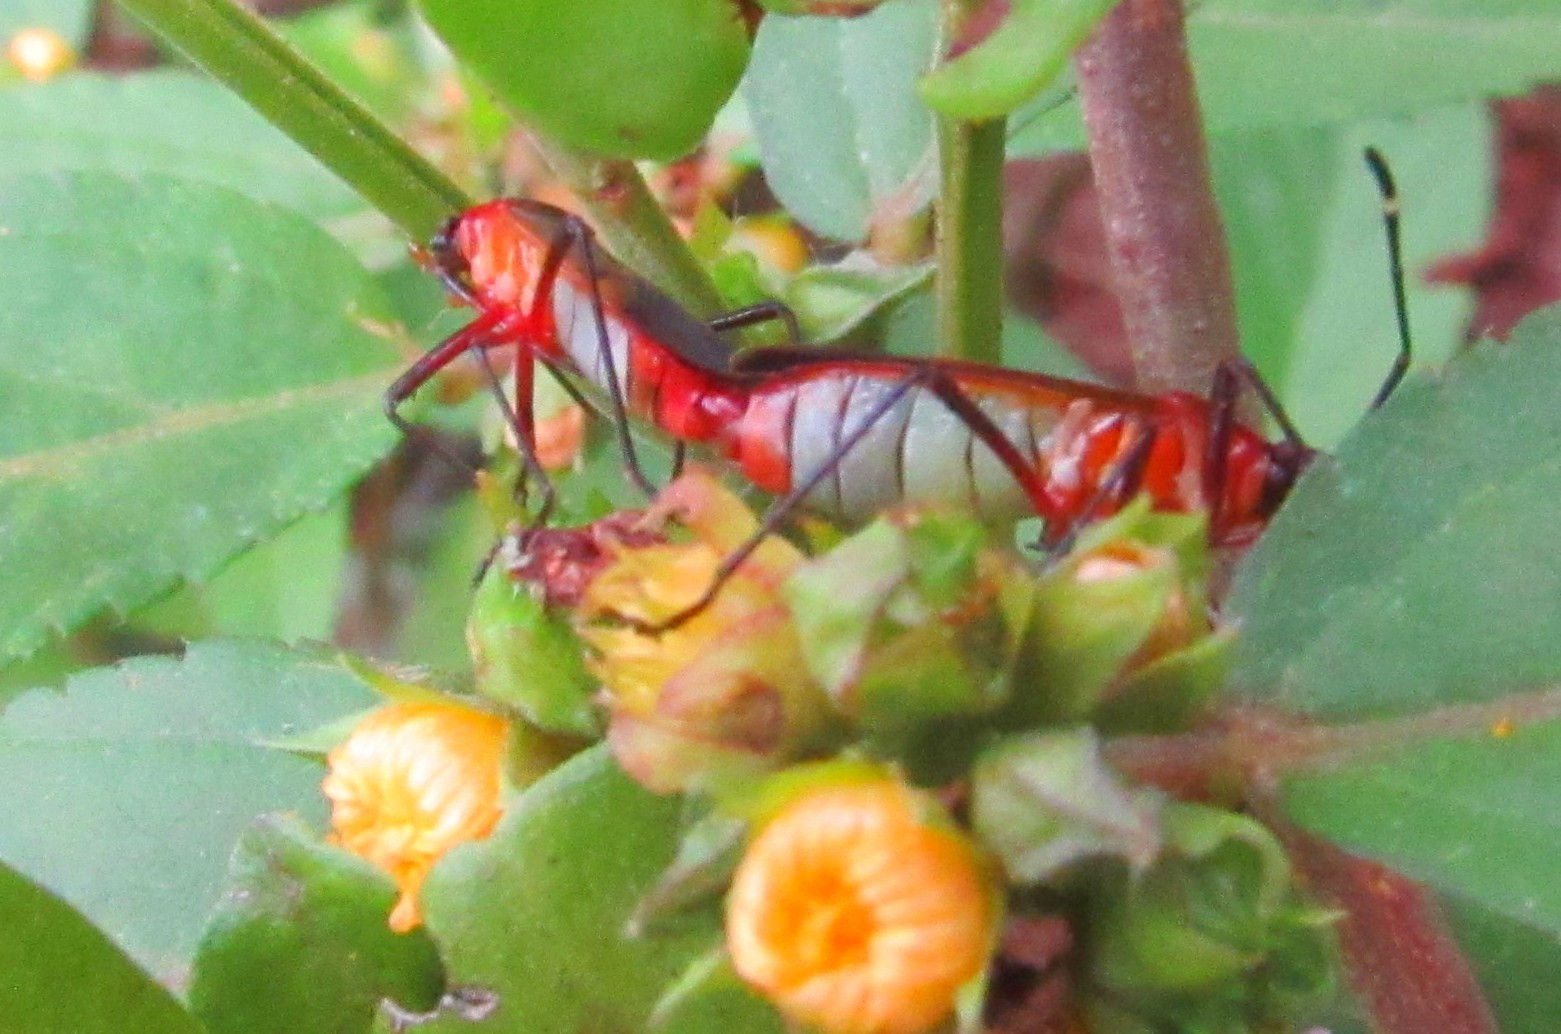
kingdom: Animalia
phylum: Arthropoda
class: Insecta
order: Hemiptera
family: Pyrrhocoridae
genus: Dysdercus
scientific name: Dysdercus ruficollis
